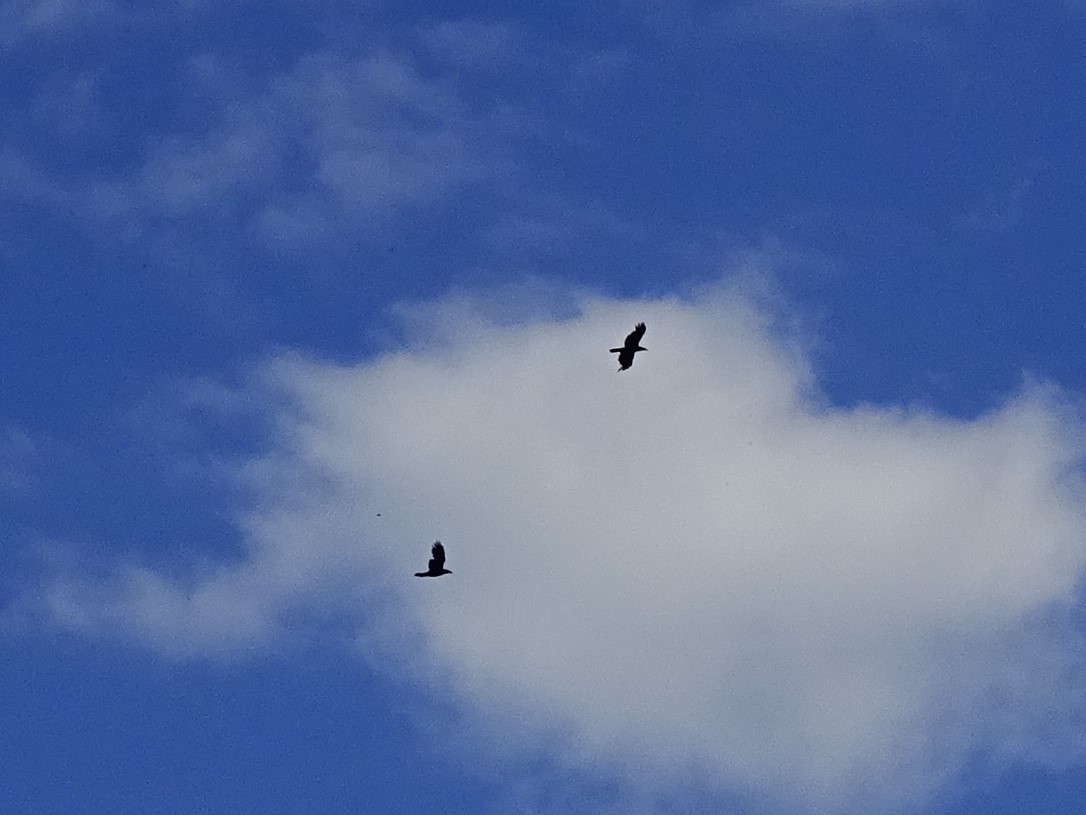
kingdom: Animalia
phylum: Chordata
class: Aves
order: Passeriformes
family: Corvidae
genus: Corvus
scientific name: Corvus corax
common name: Common raven
